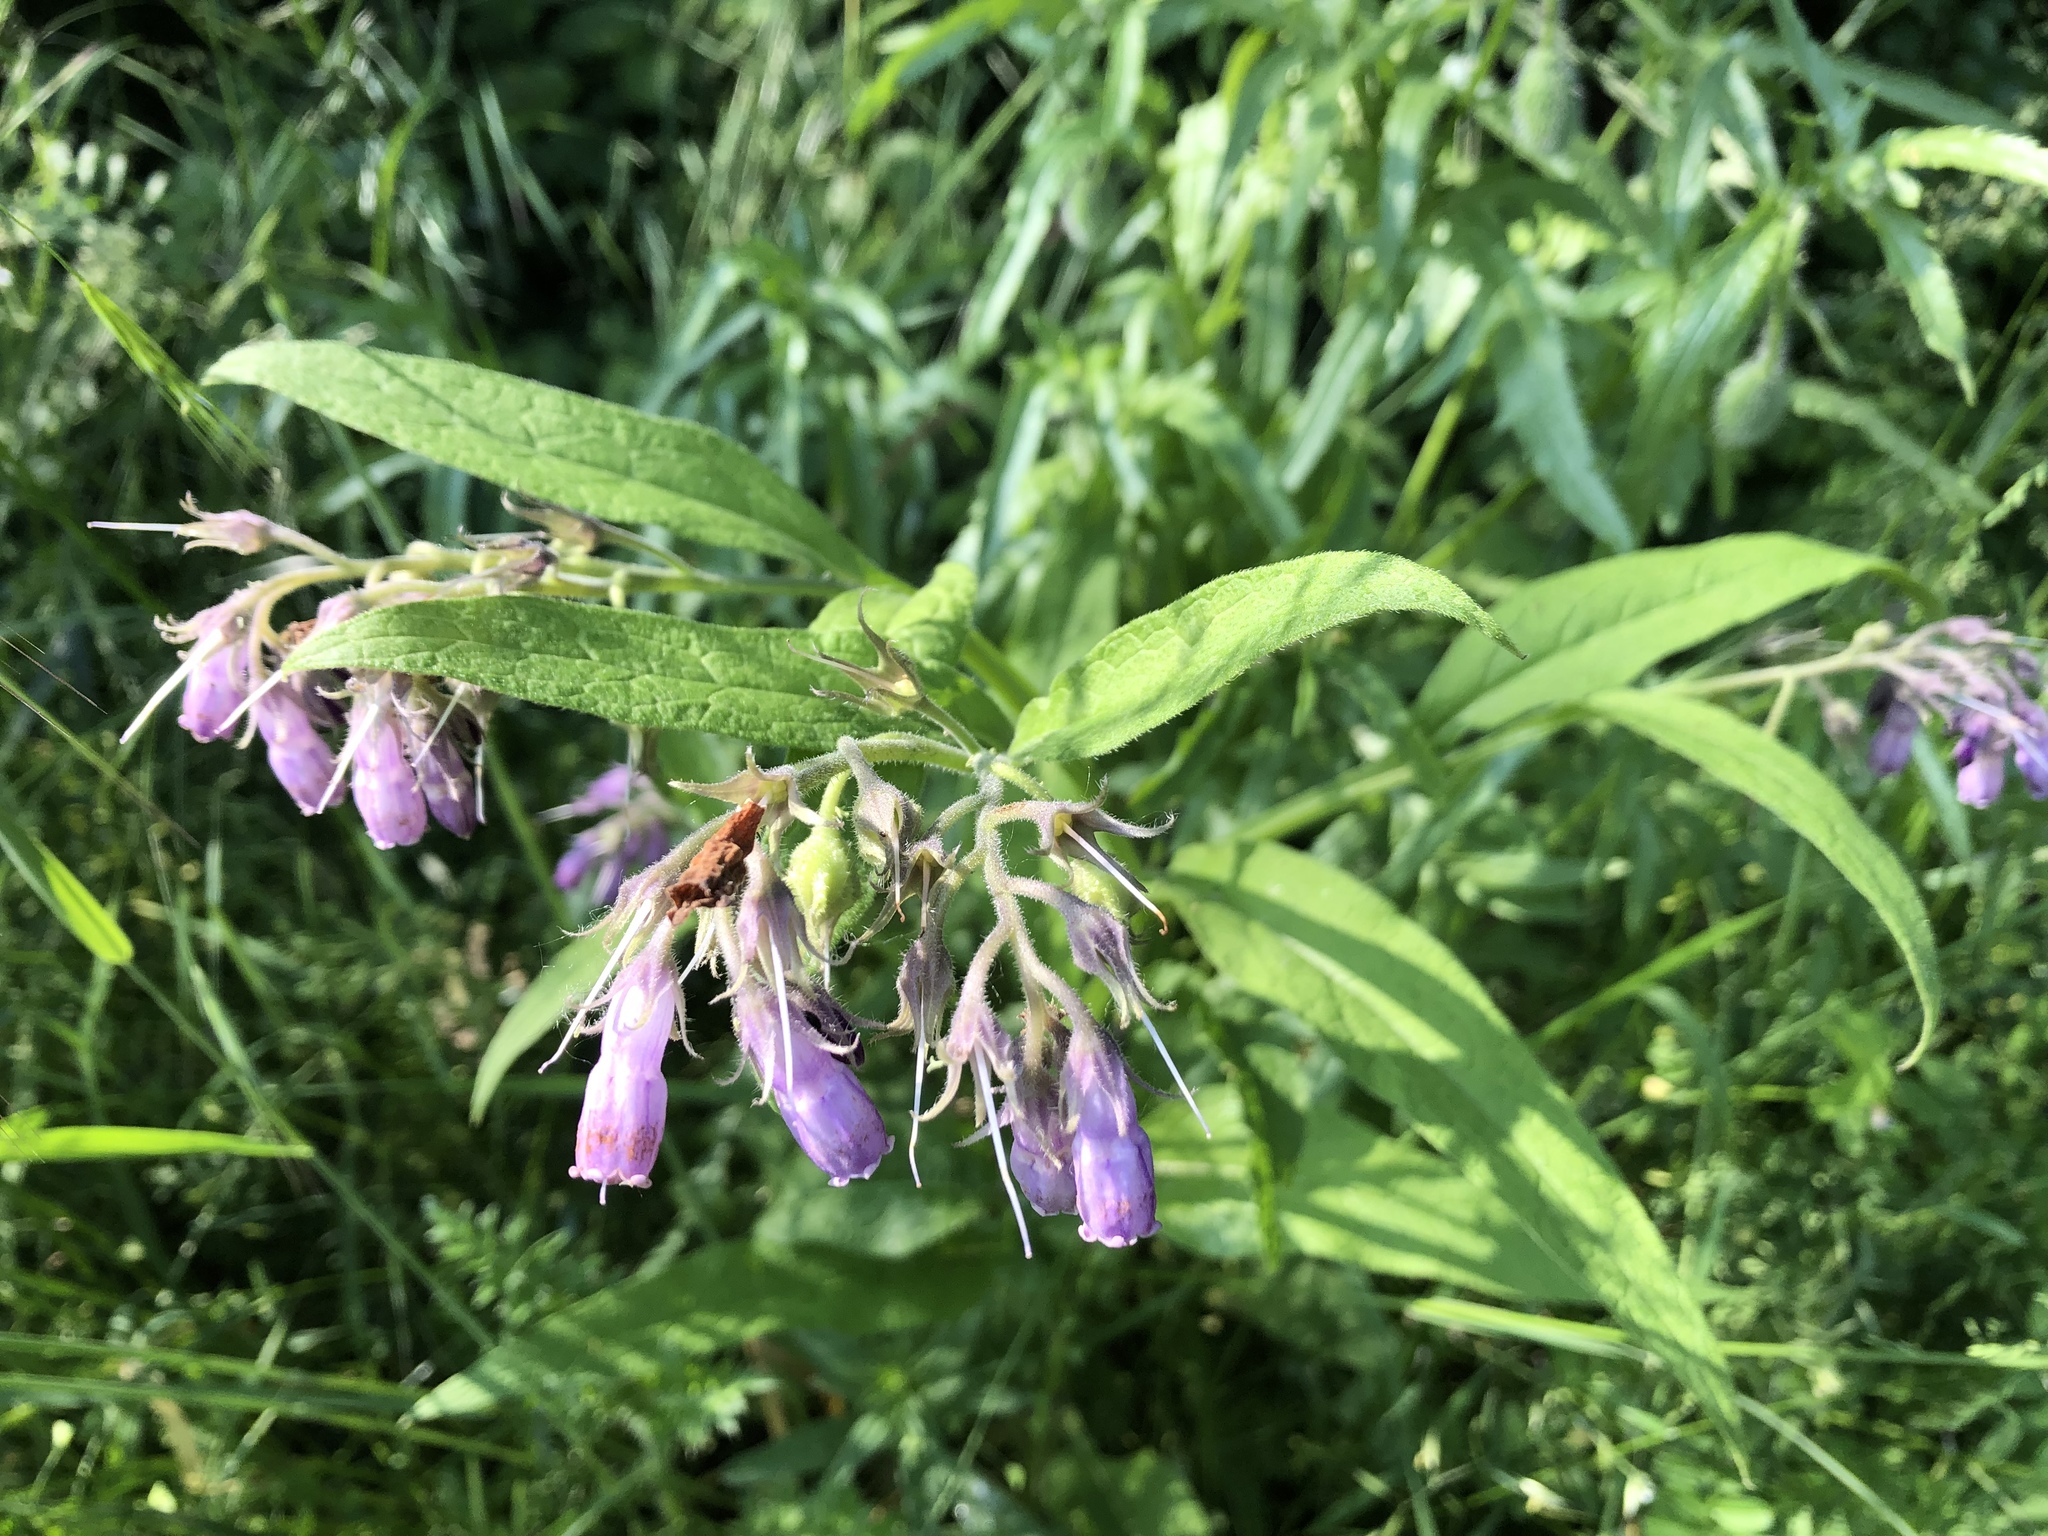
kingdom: Plantae
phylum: Tracheophyta
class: Magnoliopsida
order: Boraginales
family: Boraginaceae
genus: Symphytum
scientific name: Symphytum officinale
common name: Common comfrey
